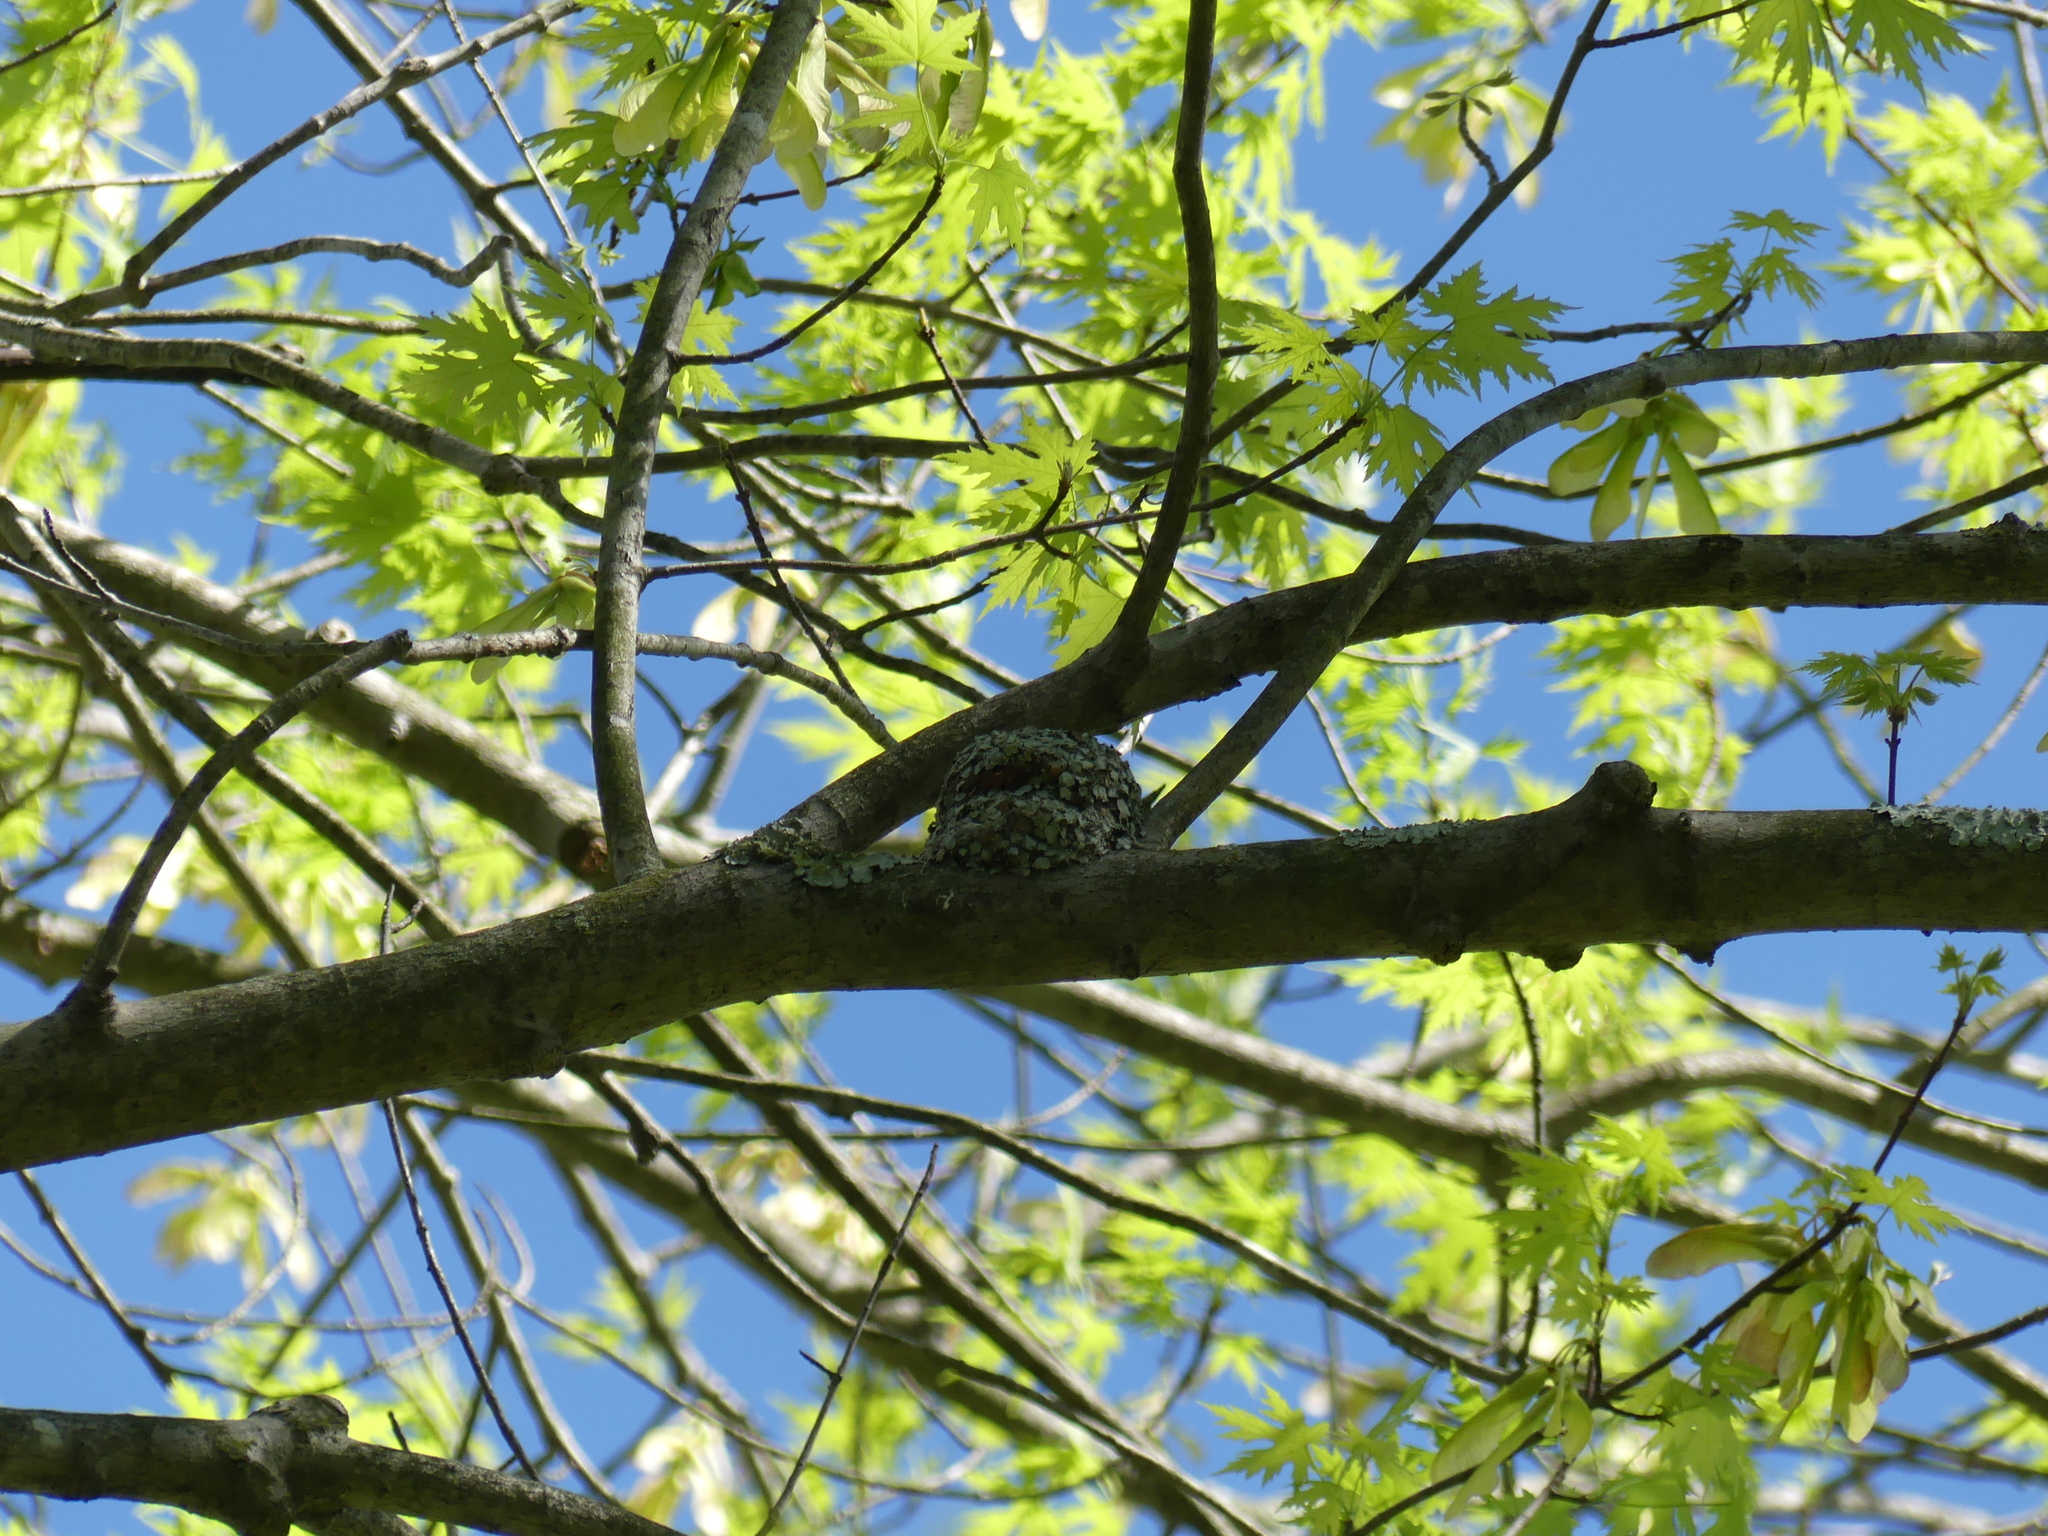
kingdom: Animalia
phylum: Chordata
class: Aves
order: Passeriformes
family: Polioptilidae
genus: Polioptila
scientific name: Polioptila caerulea
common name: Blue-gray gnatcatcher
